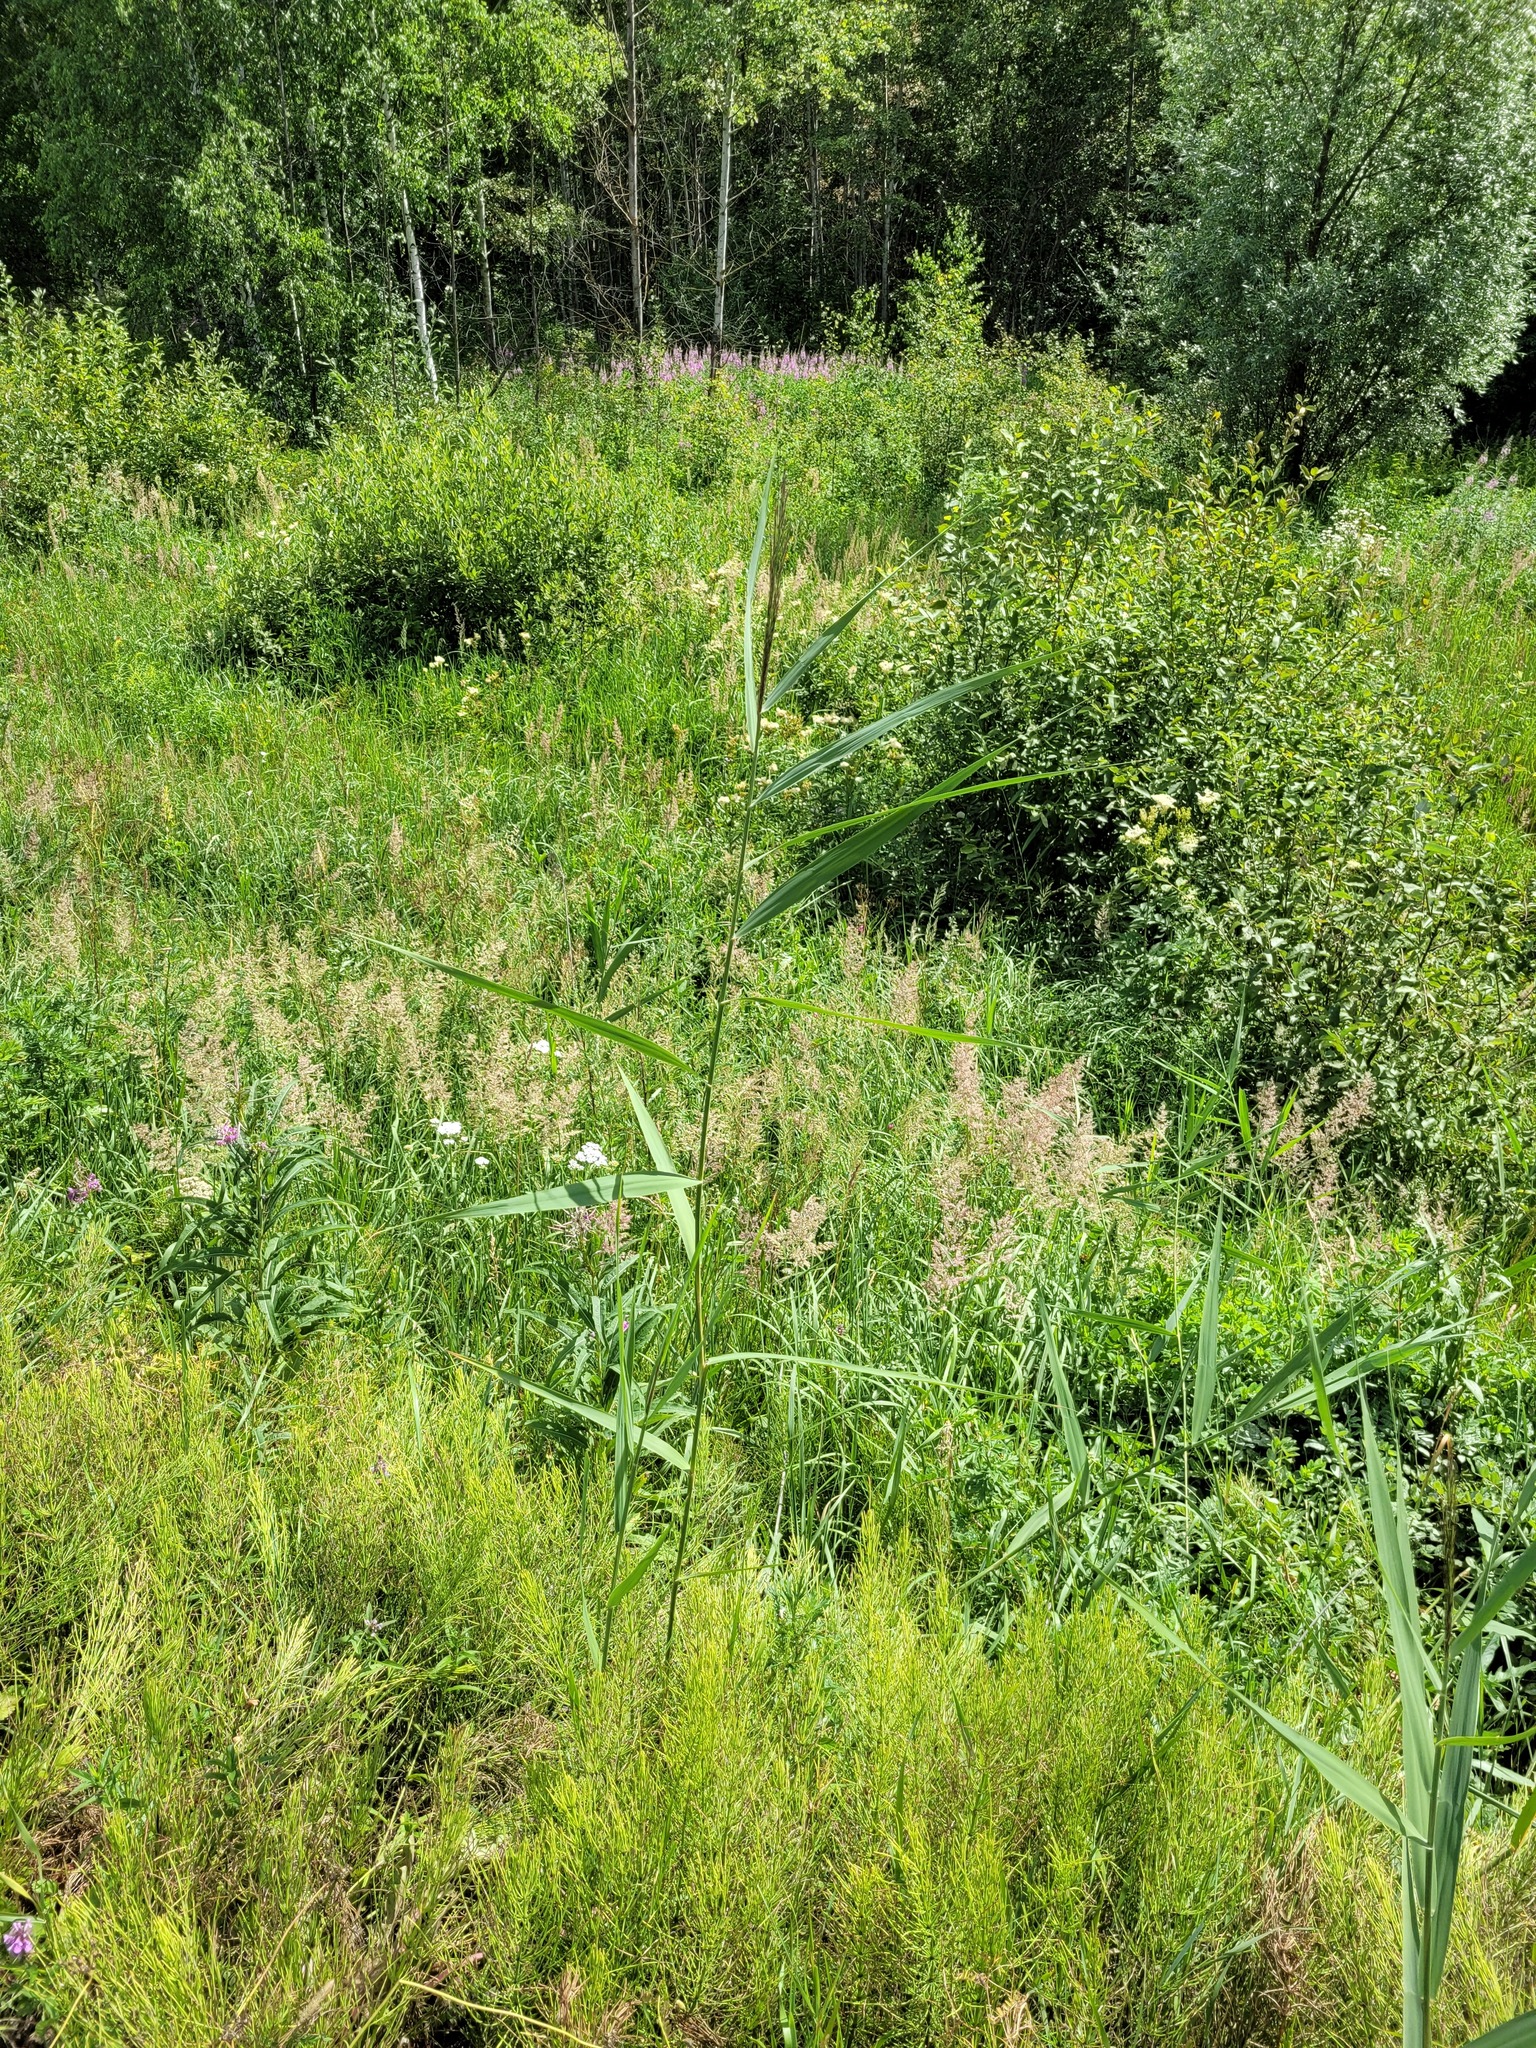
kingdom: Plantae
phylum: Tracheophyta
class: Liliopsida
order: Poales
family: Poaceae
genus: Phragmites
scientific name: Phragmites australis
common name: Common reed
